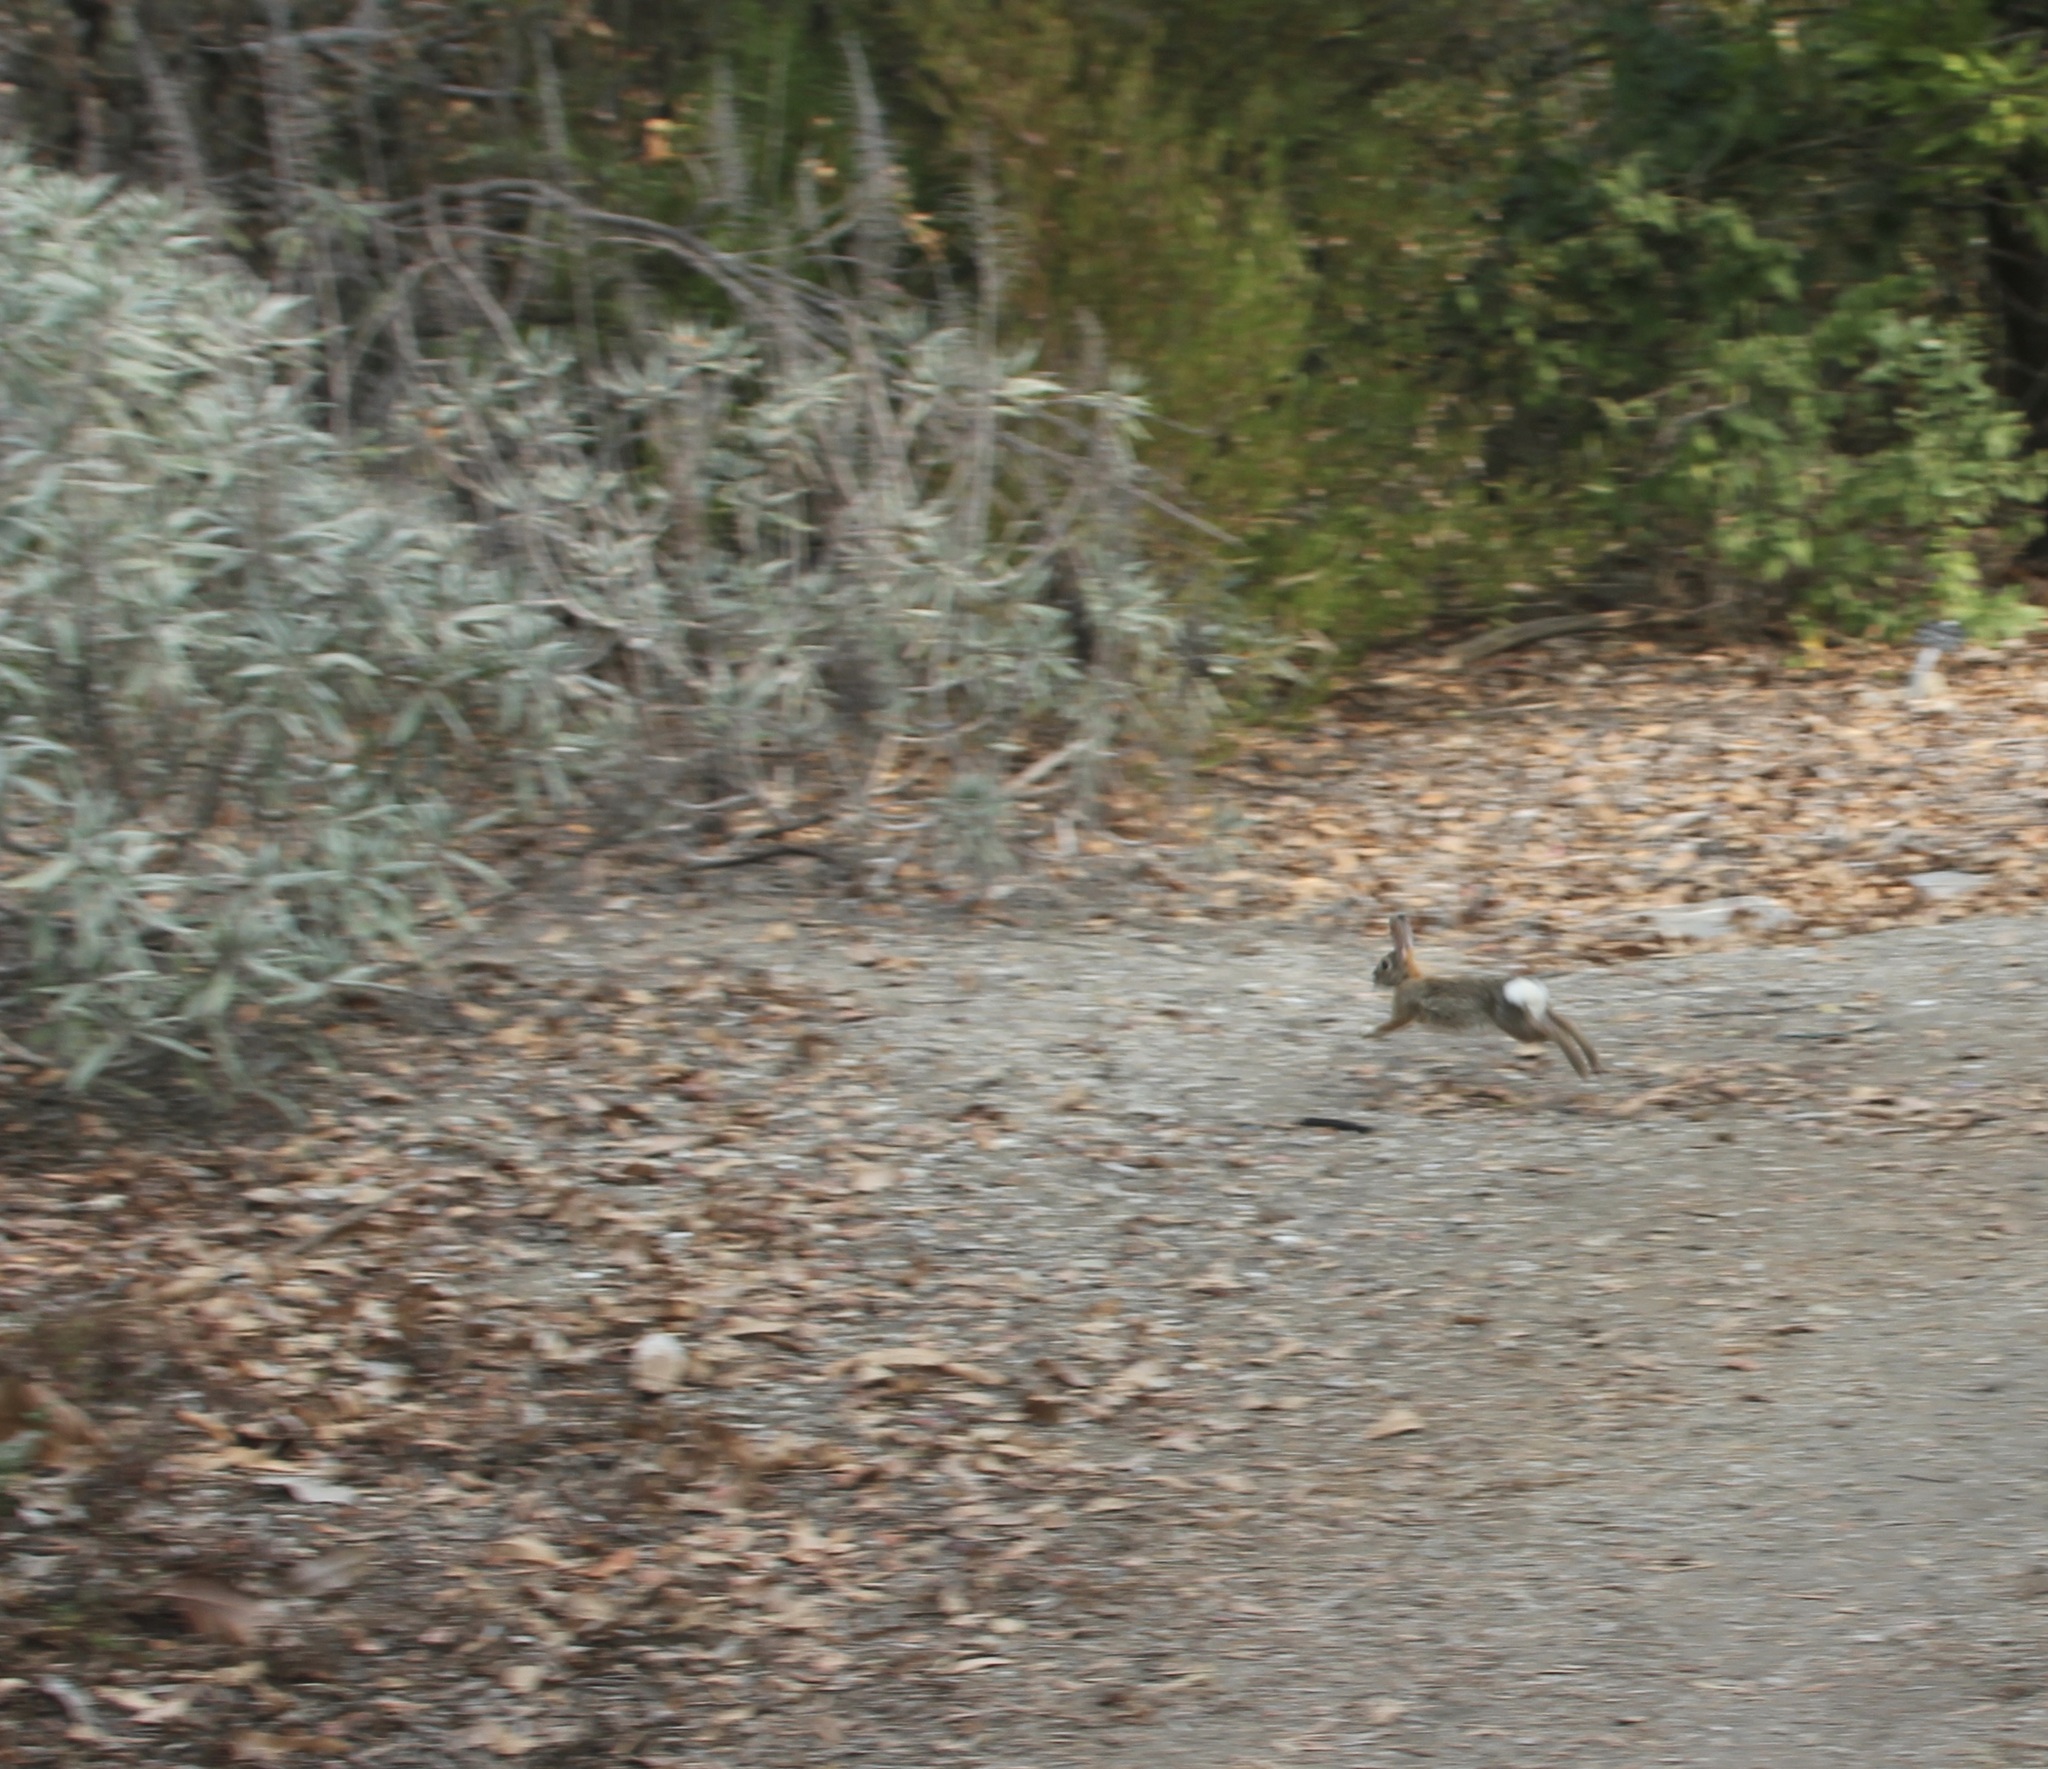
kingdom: Animalia
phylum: Chordata
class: Mammalia
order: Lagomorpha
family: Leporidae
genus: Sylvilagus
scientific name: Sylvilagus audubonii
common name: Desert cottontail
